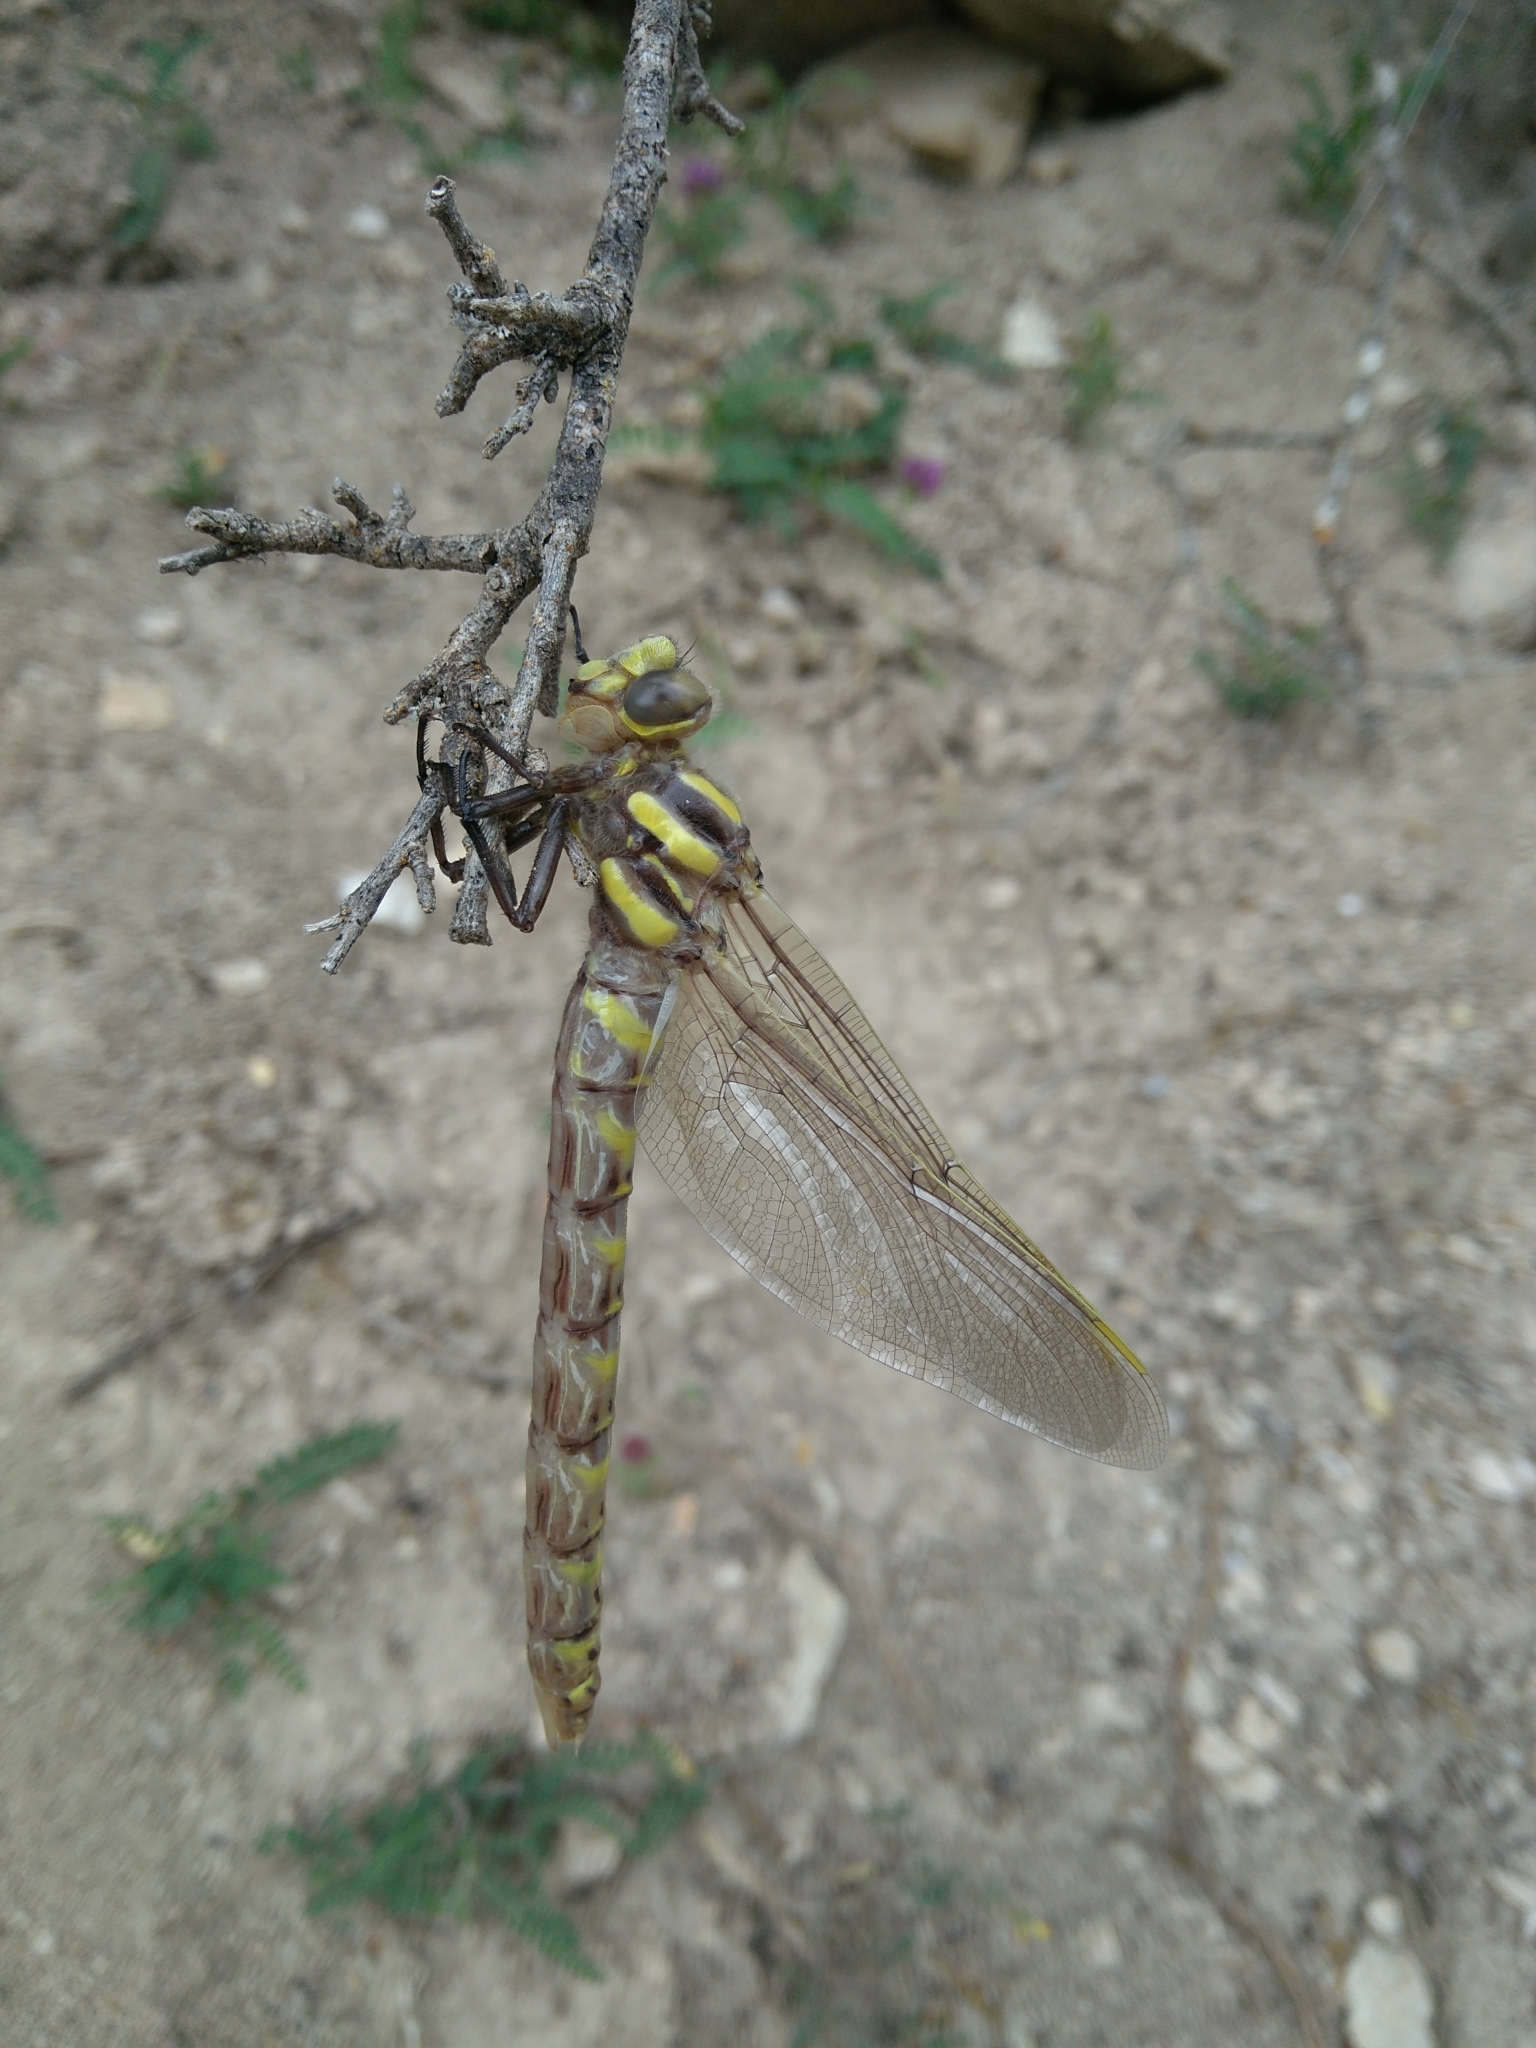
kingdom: Animalia
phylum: Arthropoda
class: Insecta
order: Odonata
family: Cordulegastridae
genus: Cordulegaster
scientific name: Cordulegaster boltonii
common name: Golden-ringed dragonfly
